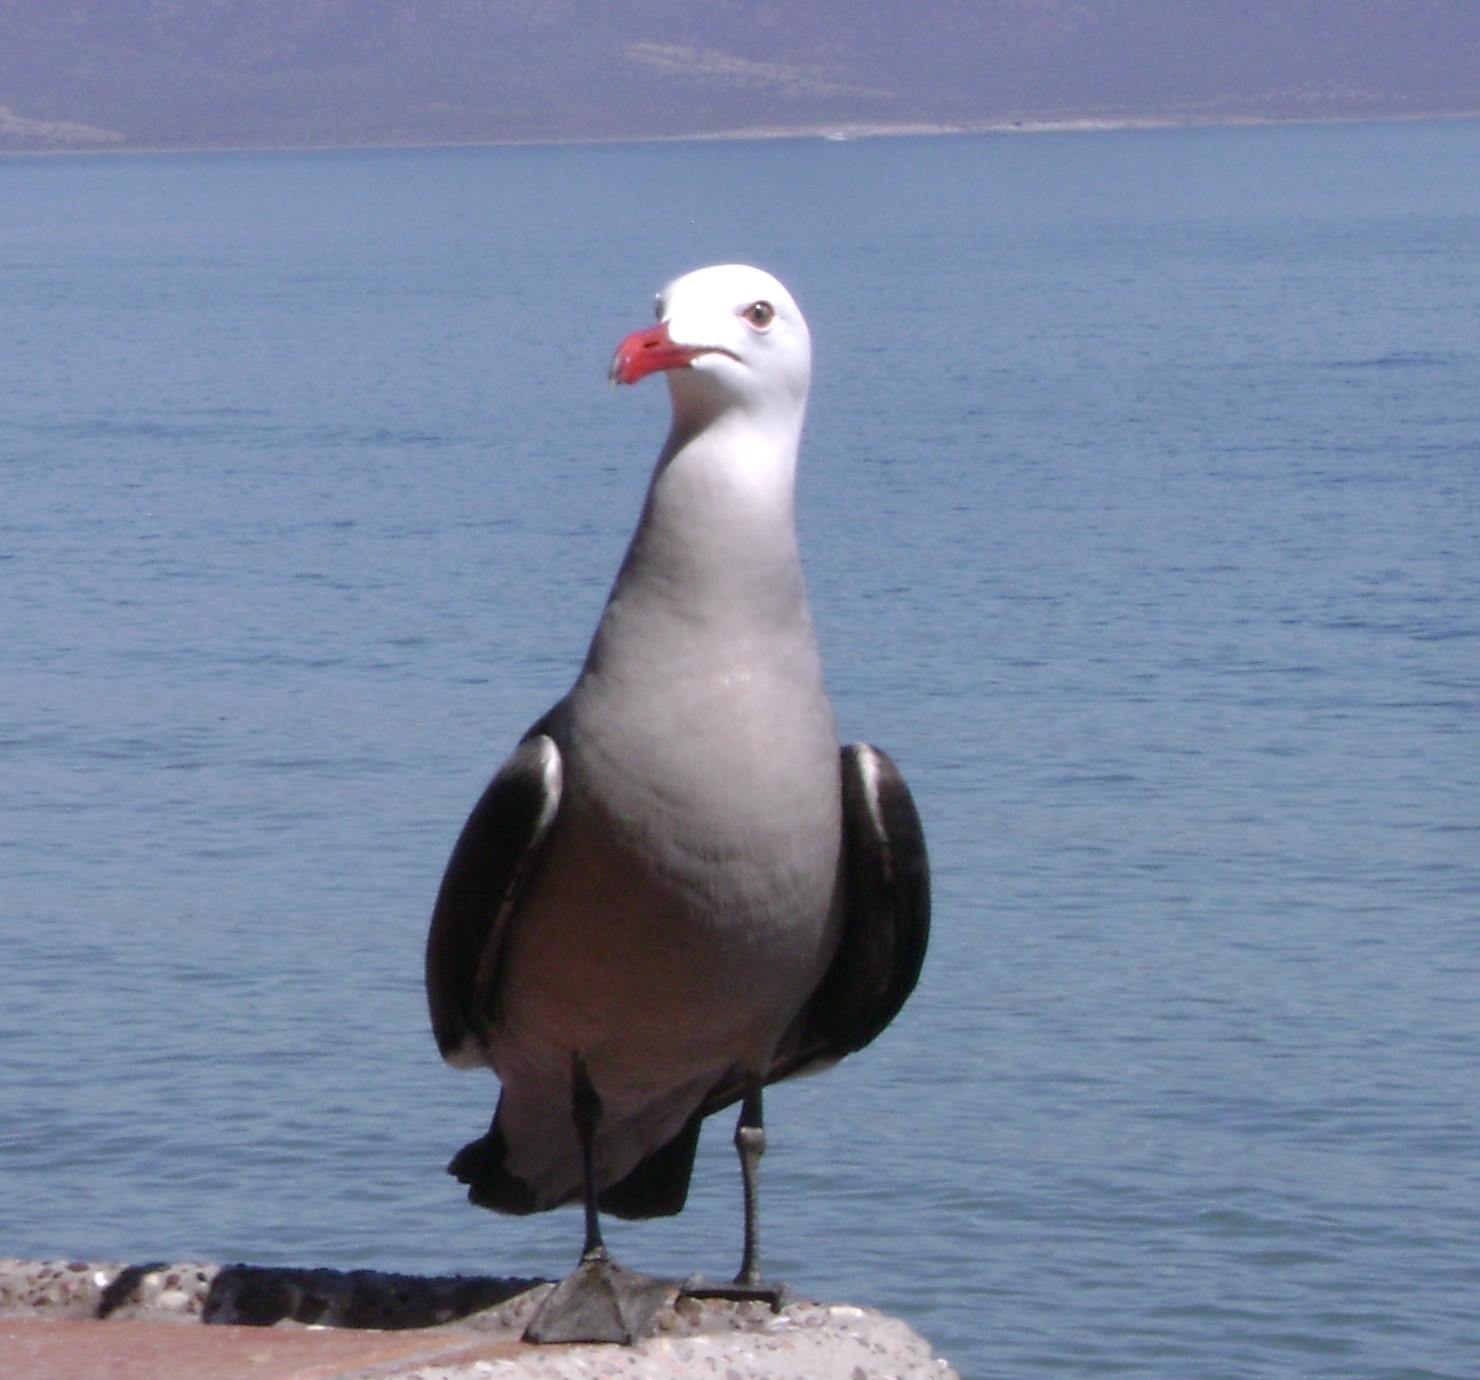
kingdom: Animalia
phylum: Chordata
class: Aves
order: Charadriiformes
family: Laridae
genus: Larus
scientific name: Larus heermanni
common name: Heermann's gull
